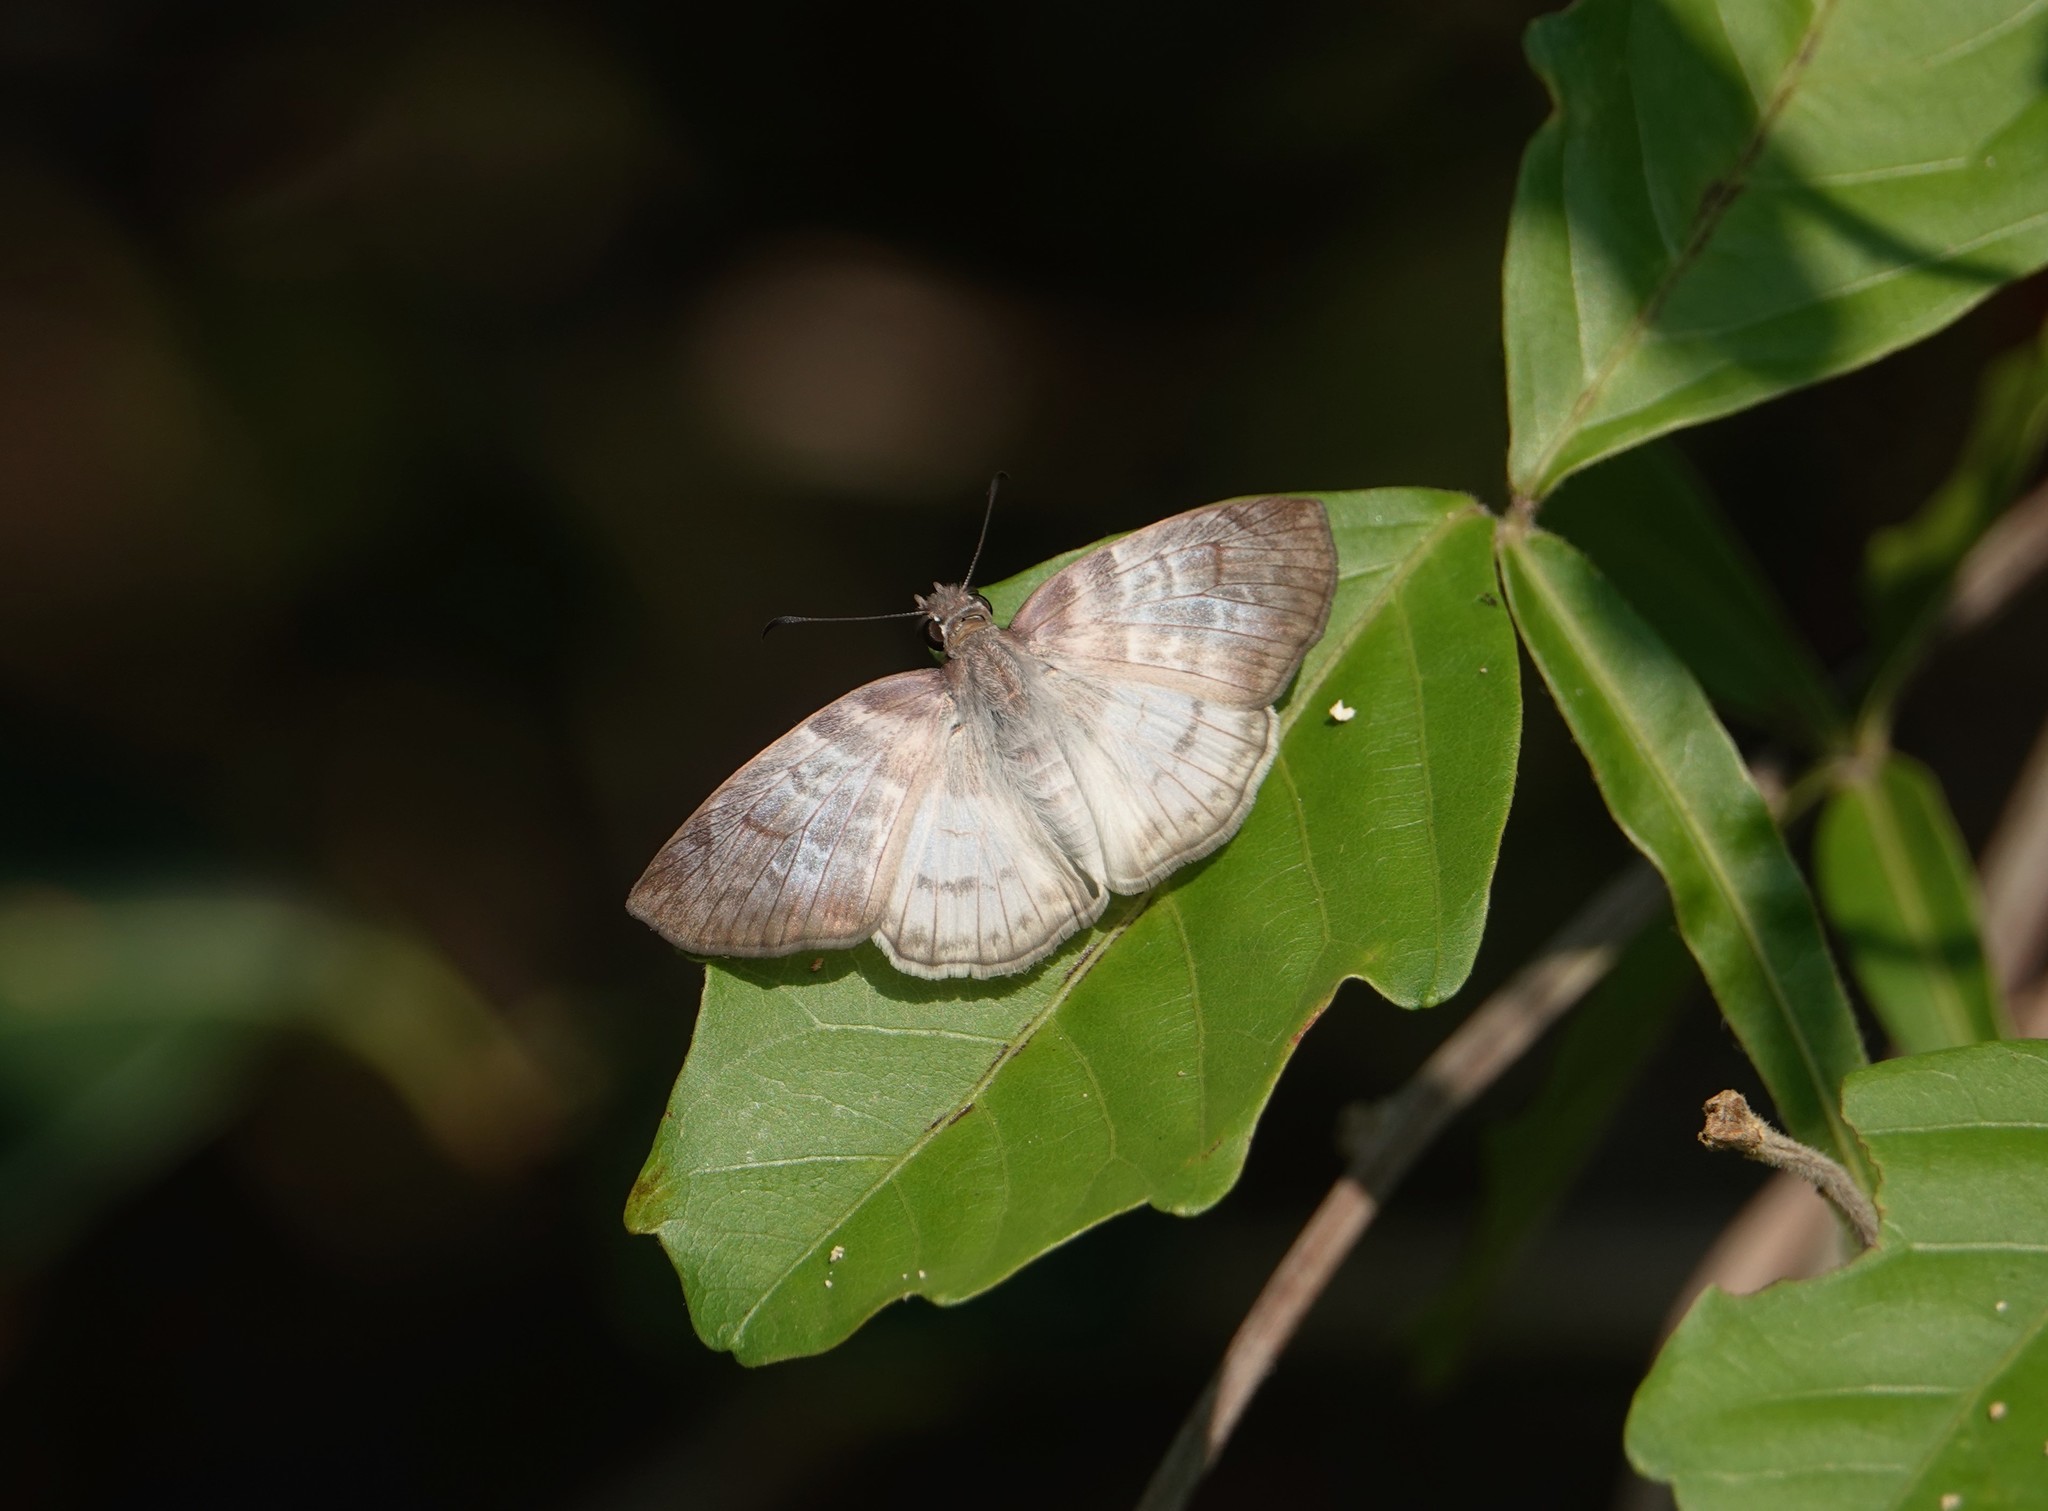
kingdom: Animalia
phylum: Arthropoda
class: Insecta
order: Lepidoptera
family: Hesperiidae
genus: Mylon
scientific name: Mylon pelopidas
